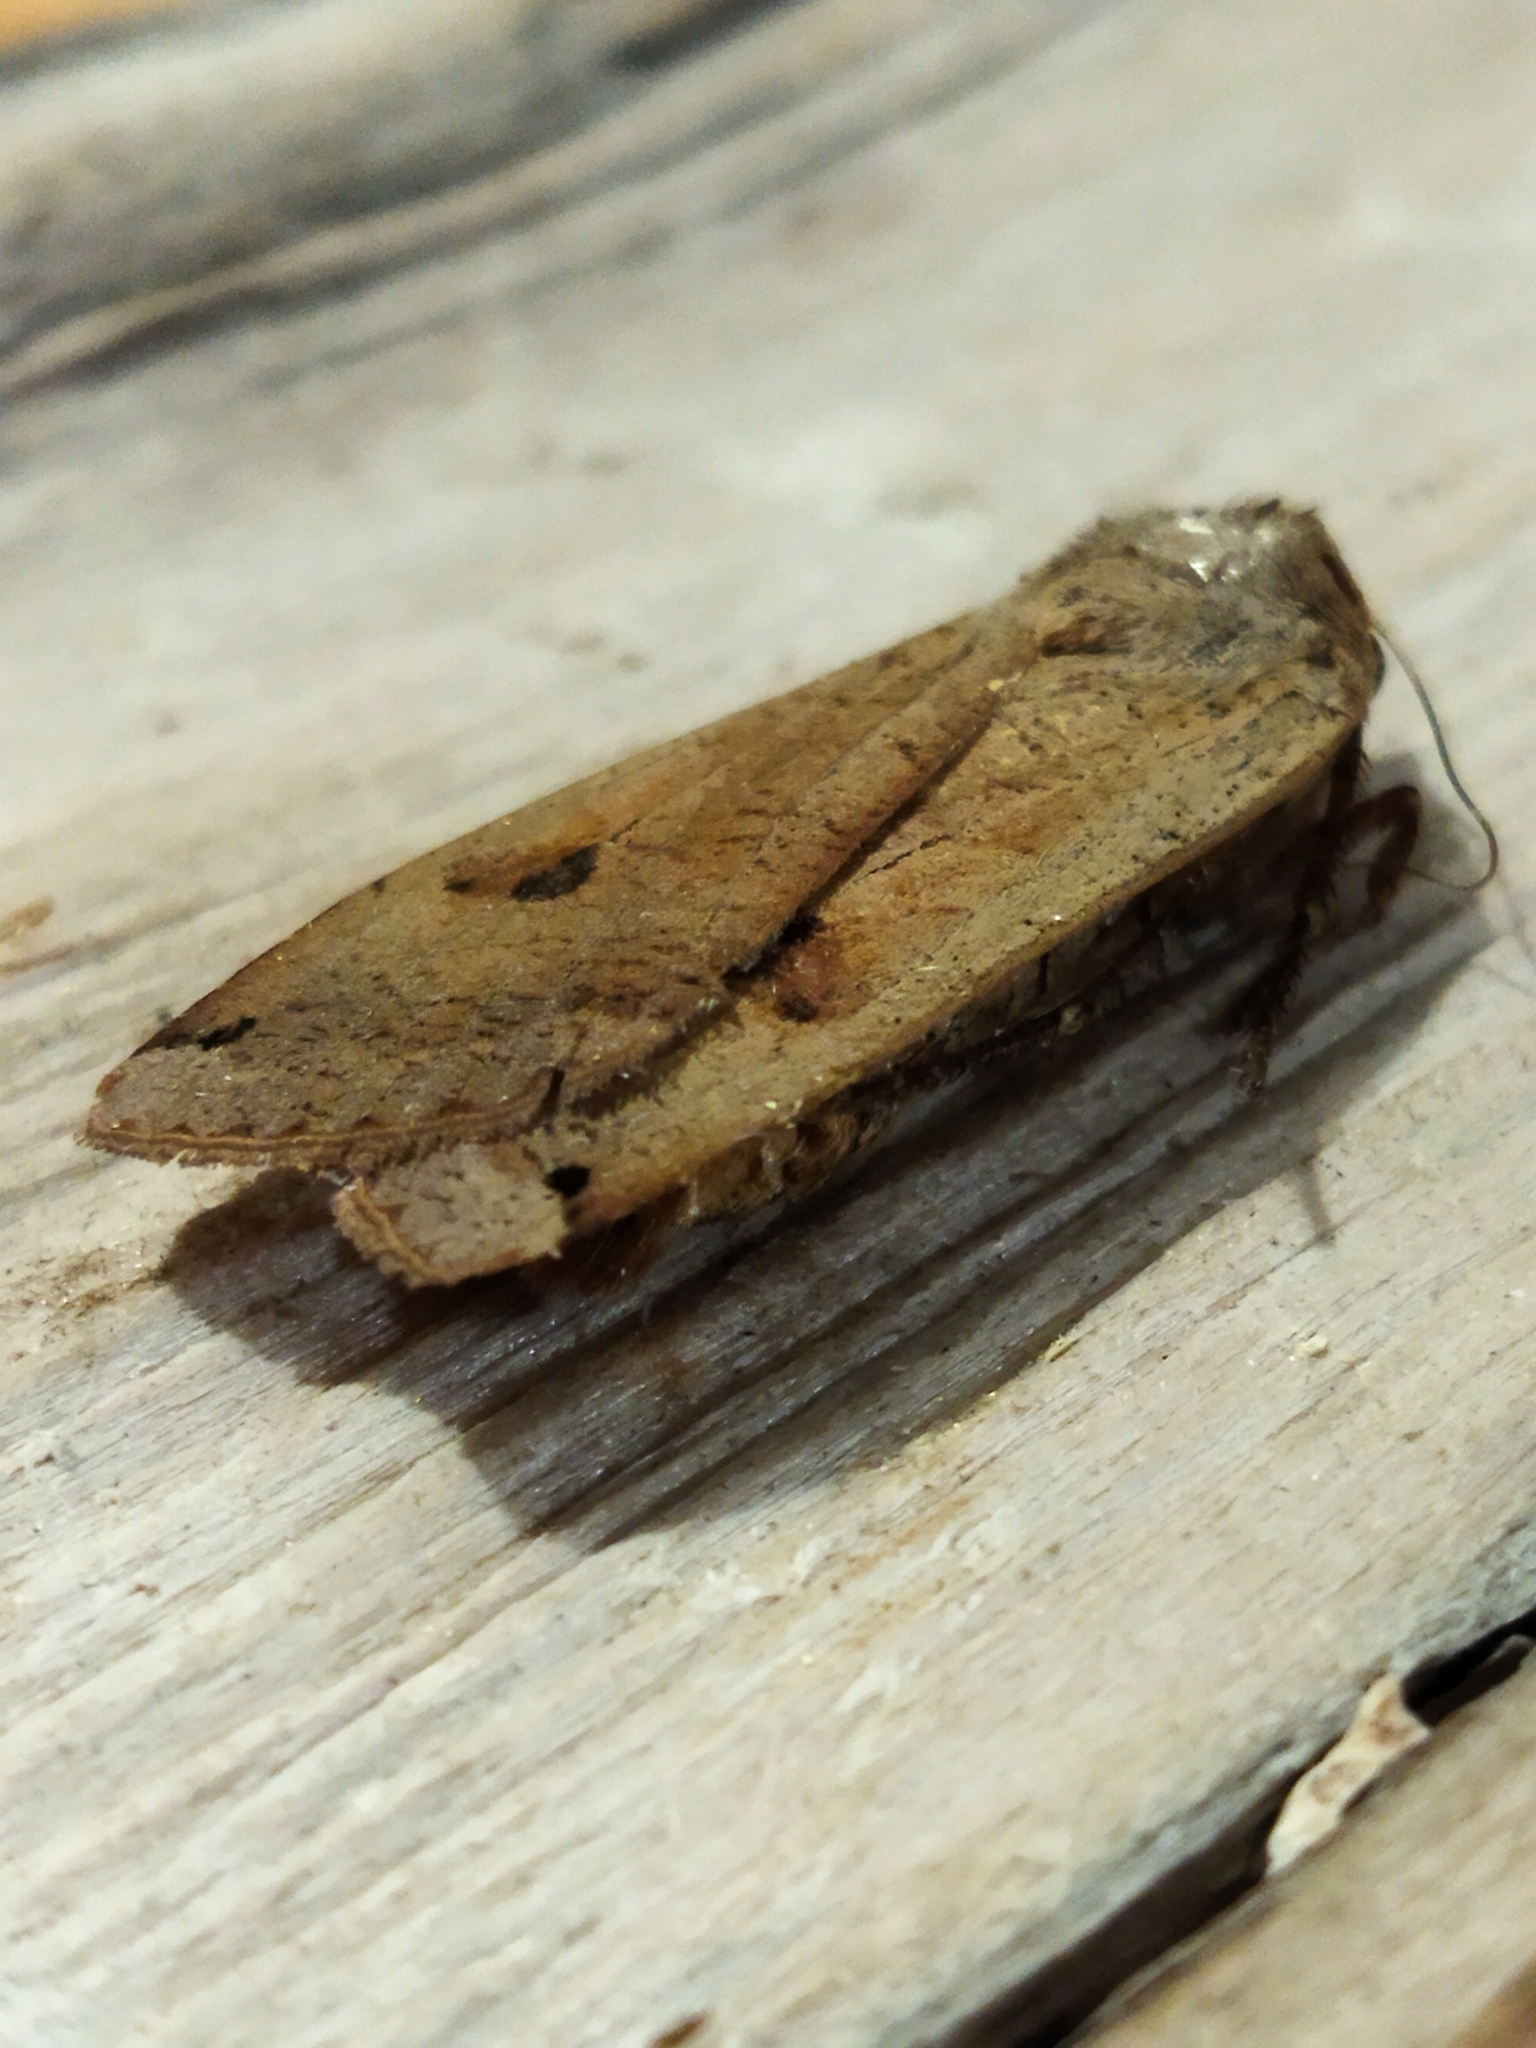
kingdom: Animalia
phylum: Arthropoda
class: Insecta
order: Lepidoptera
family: Noctuidae
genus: Noctua
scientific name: Noctua pronuba
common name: Large yellow underwing
